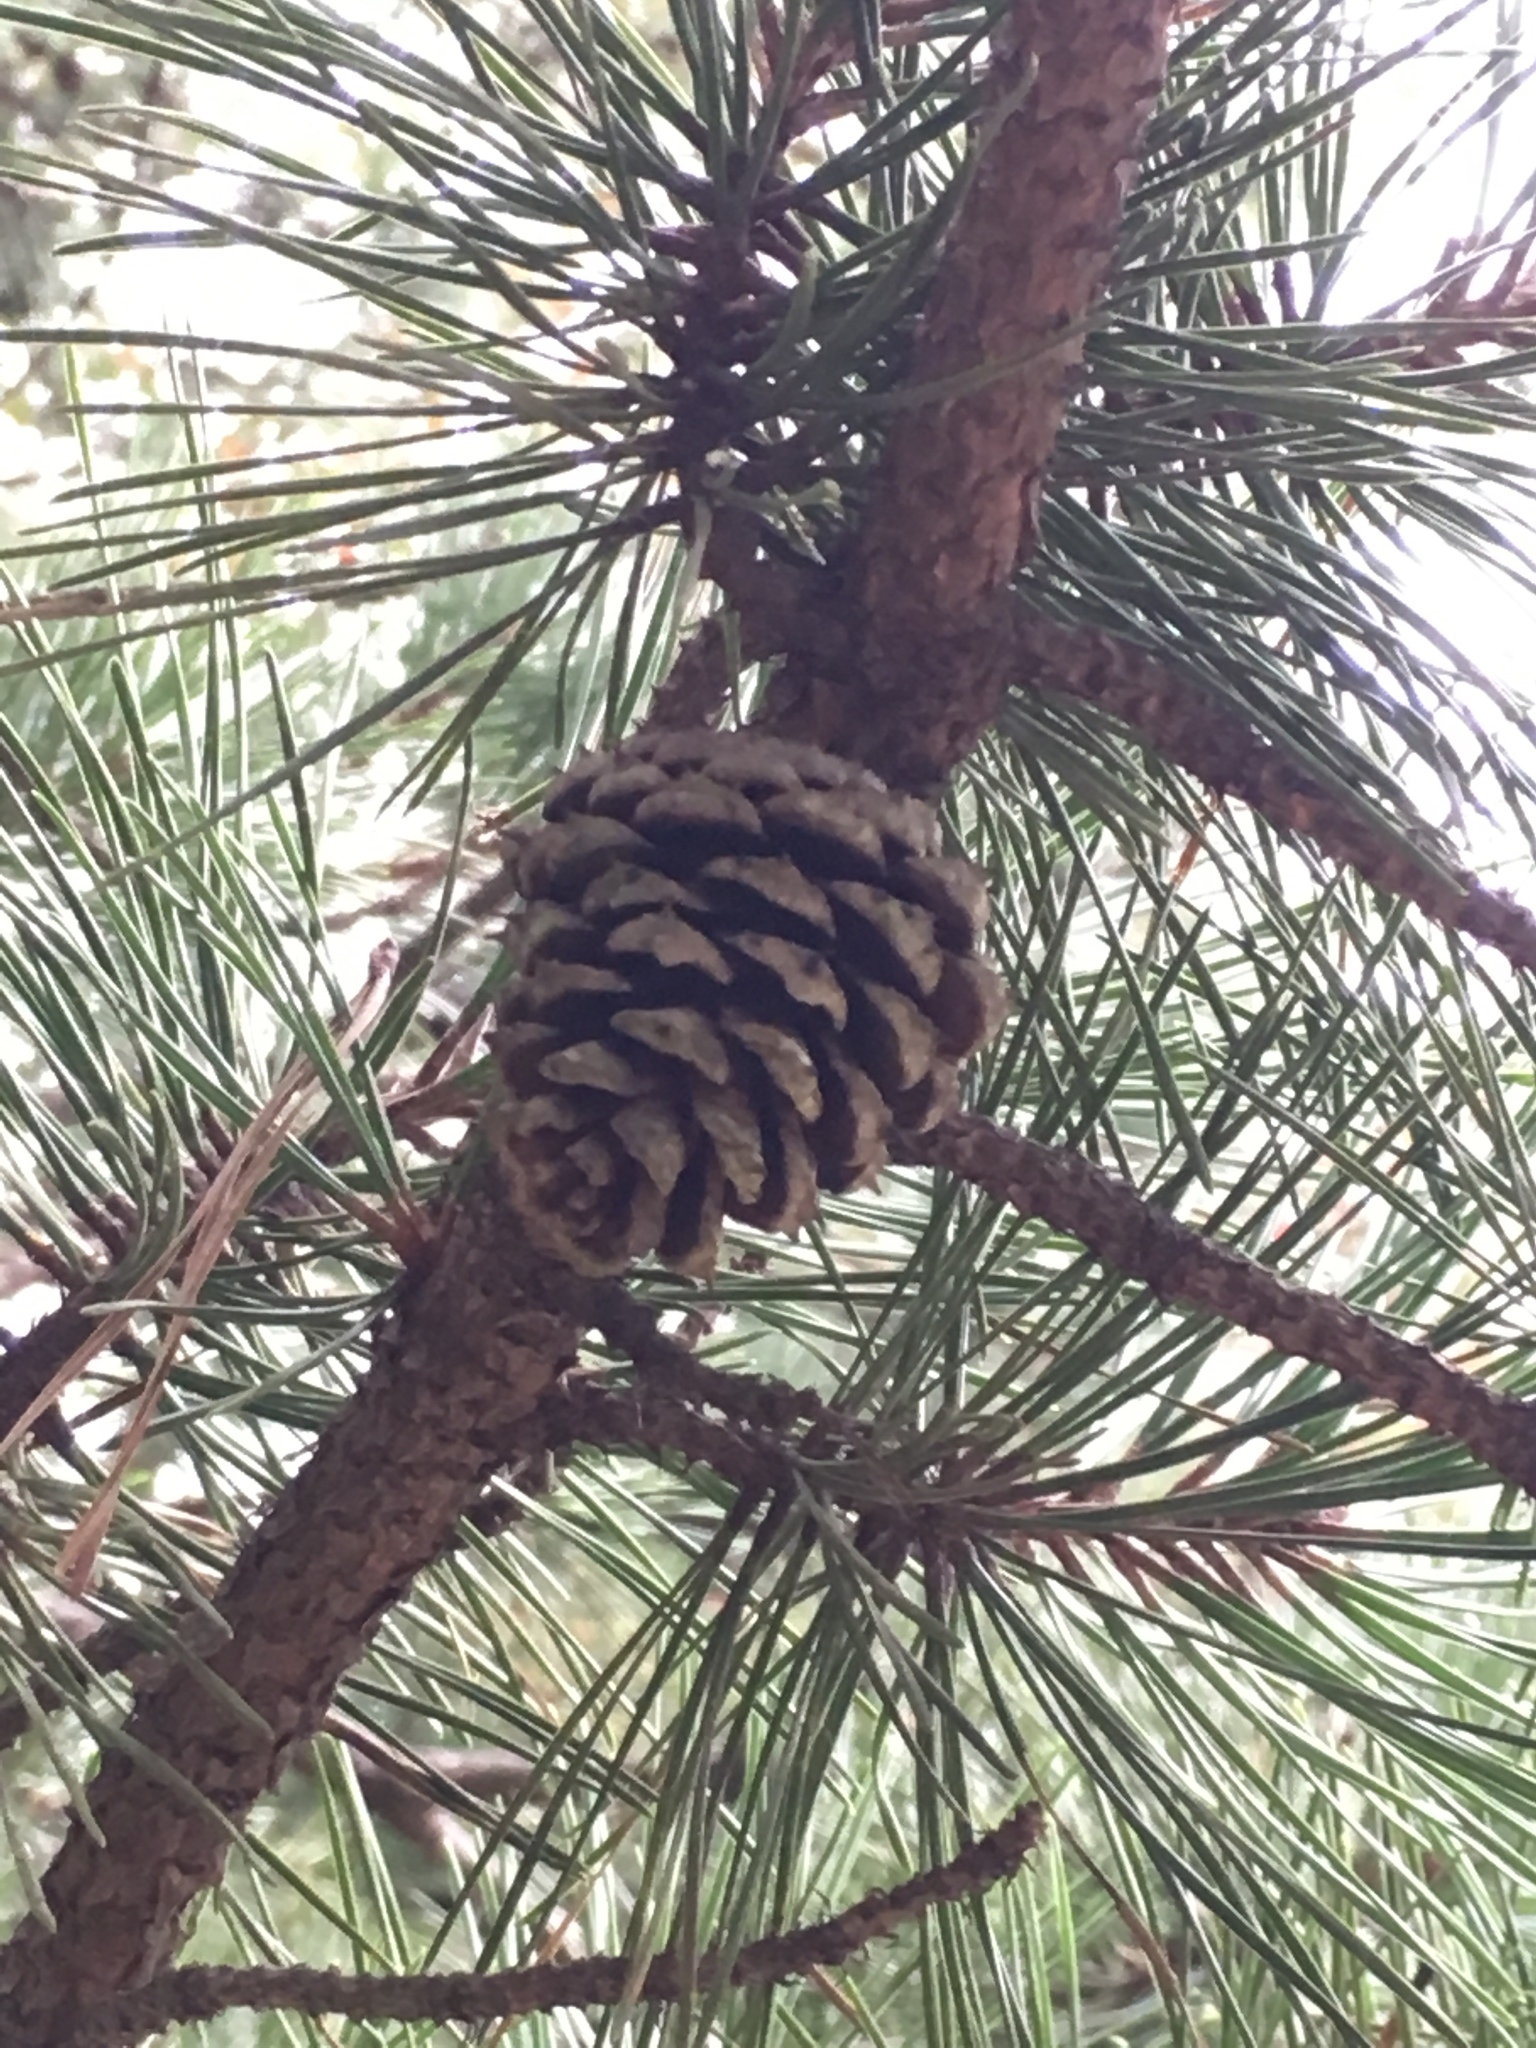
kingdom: Plantae
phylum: Tracheophyta
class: Pinopsida
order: Pinales
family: Pinaceae
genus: Pinus
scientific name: Pinus rigida
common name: Pitch pine
